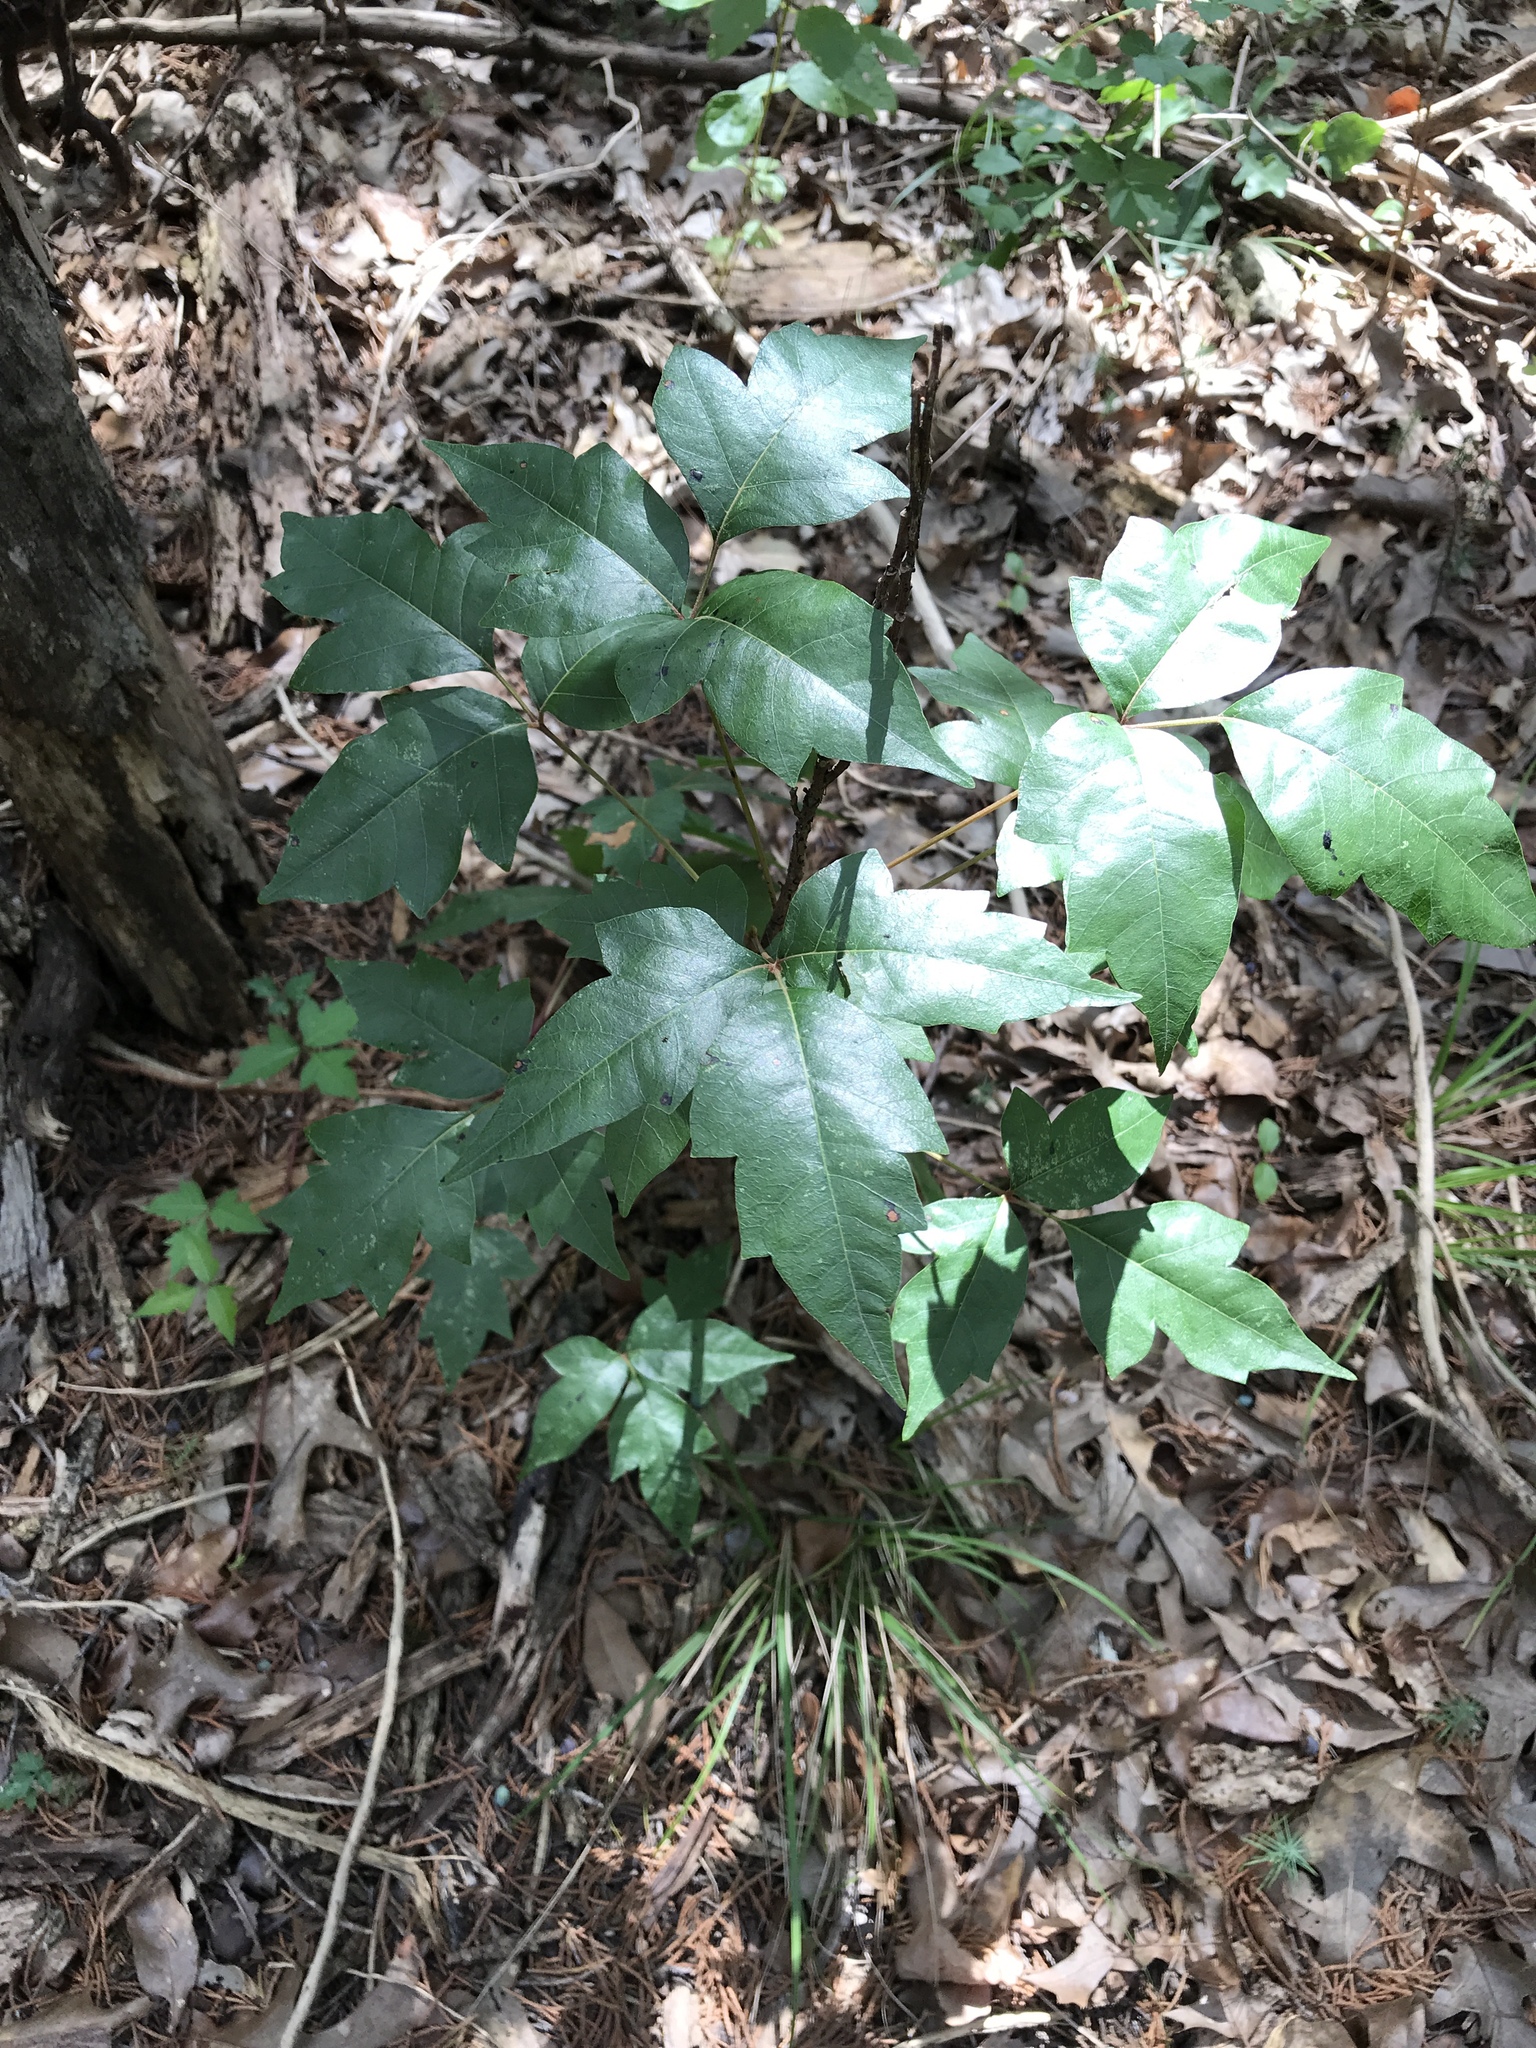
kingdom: Plantae
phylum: Tracheophyta
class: Magnoliopsida
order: Sapindales
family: Anacardiaceae
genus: Toxicodendron
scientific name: Toxicodendron radicans
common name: Poison ivy
